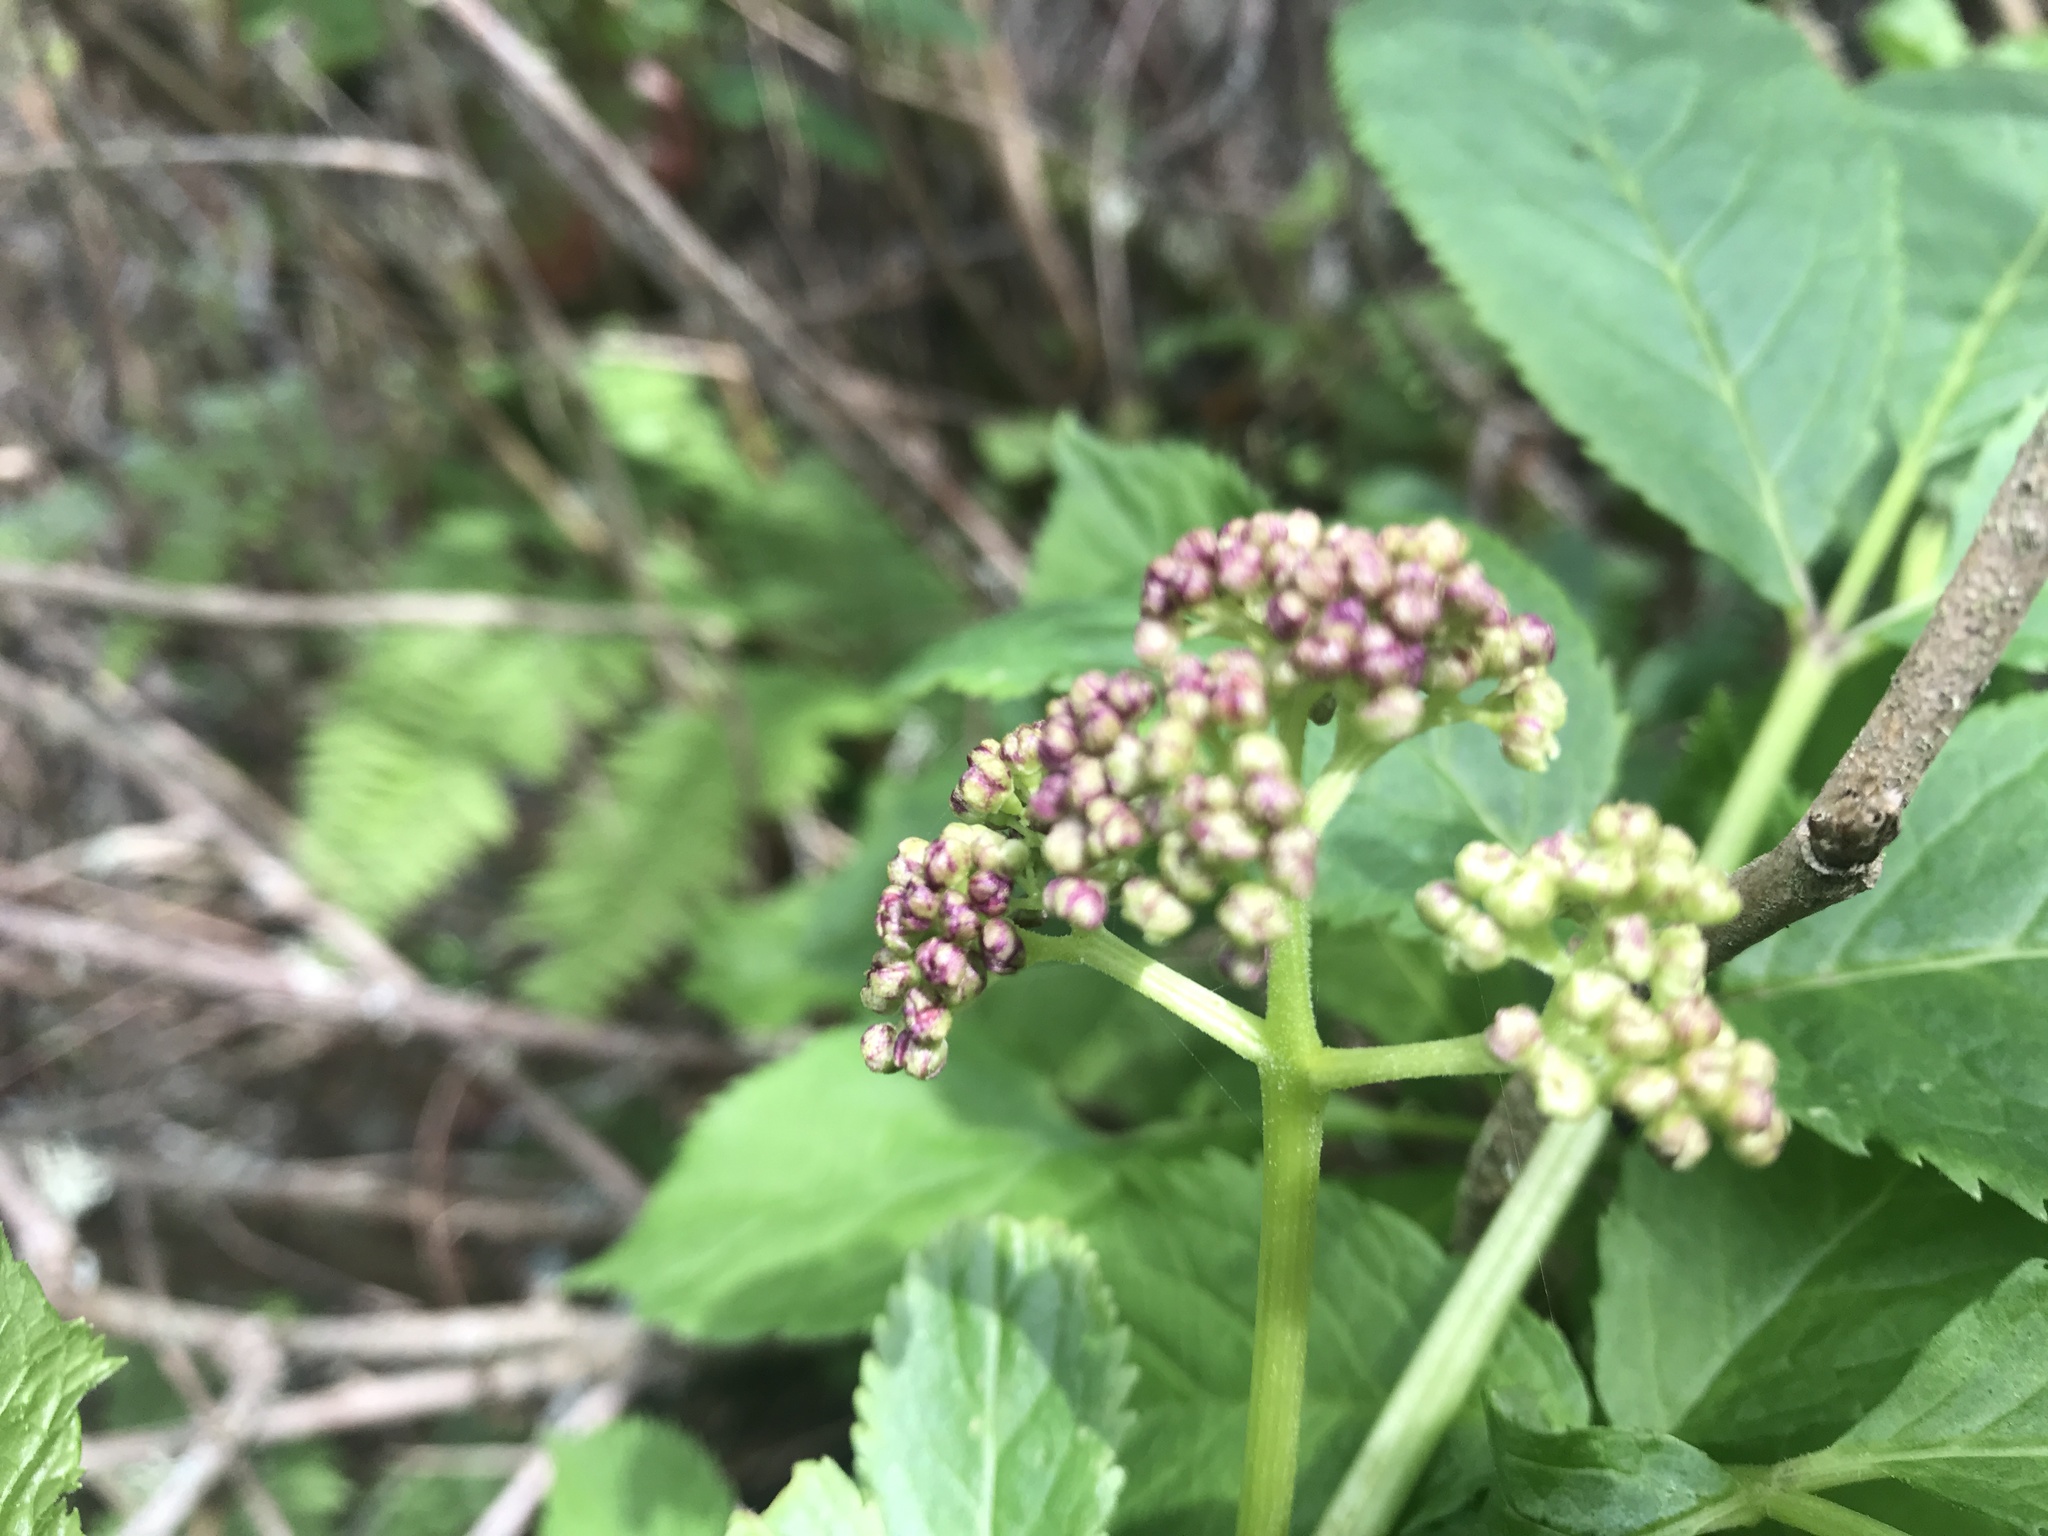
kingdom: Plantae
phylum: Tracheophyta
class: Magnoliopsida
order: Dipsacales
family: Viburnaceae
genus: Sambucus
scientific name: Sambucus racemosa
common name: Red-berried elder
